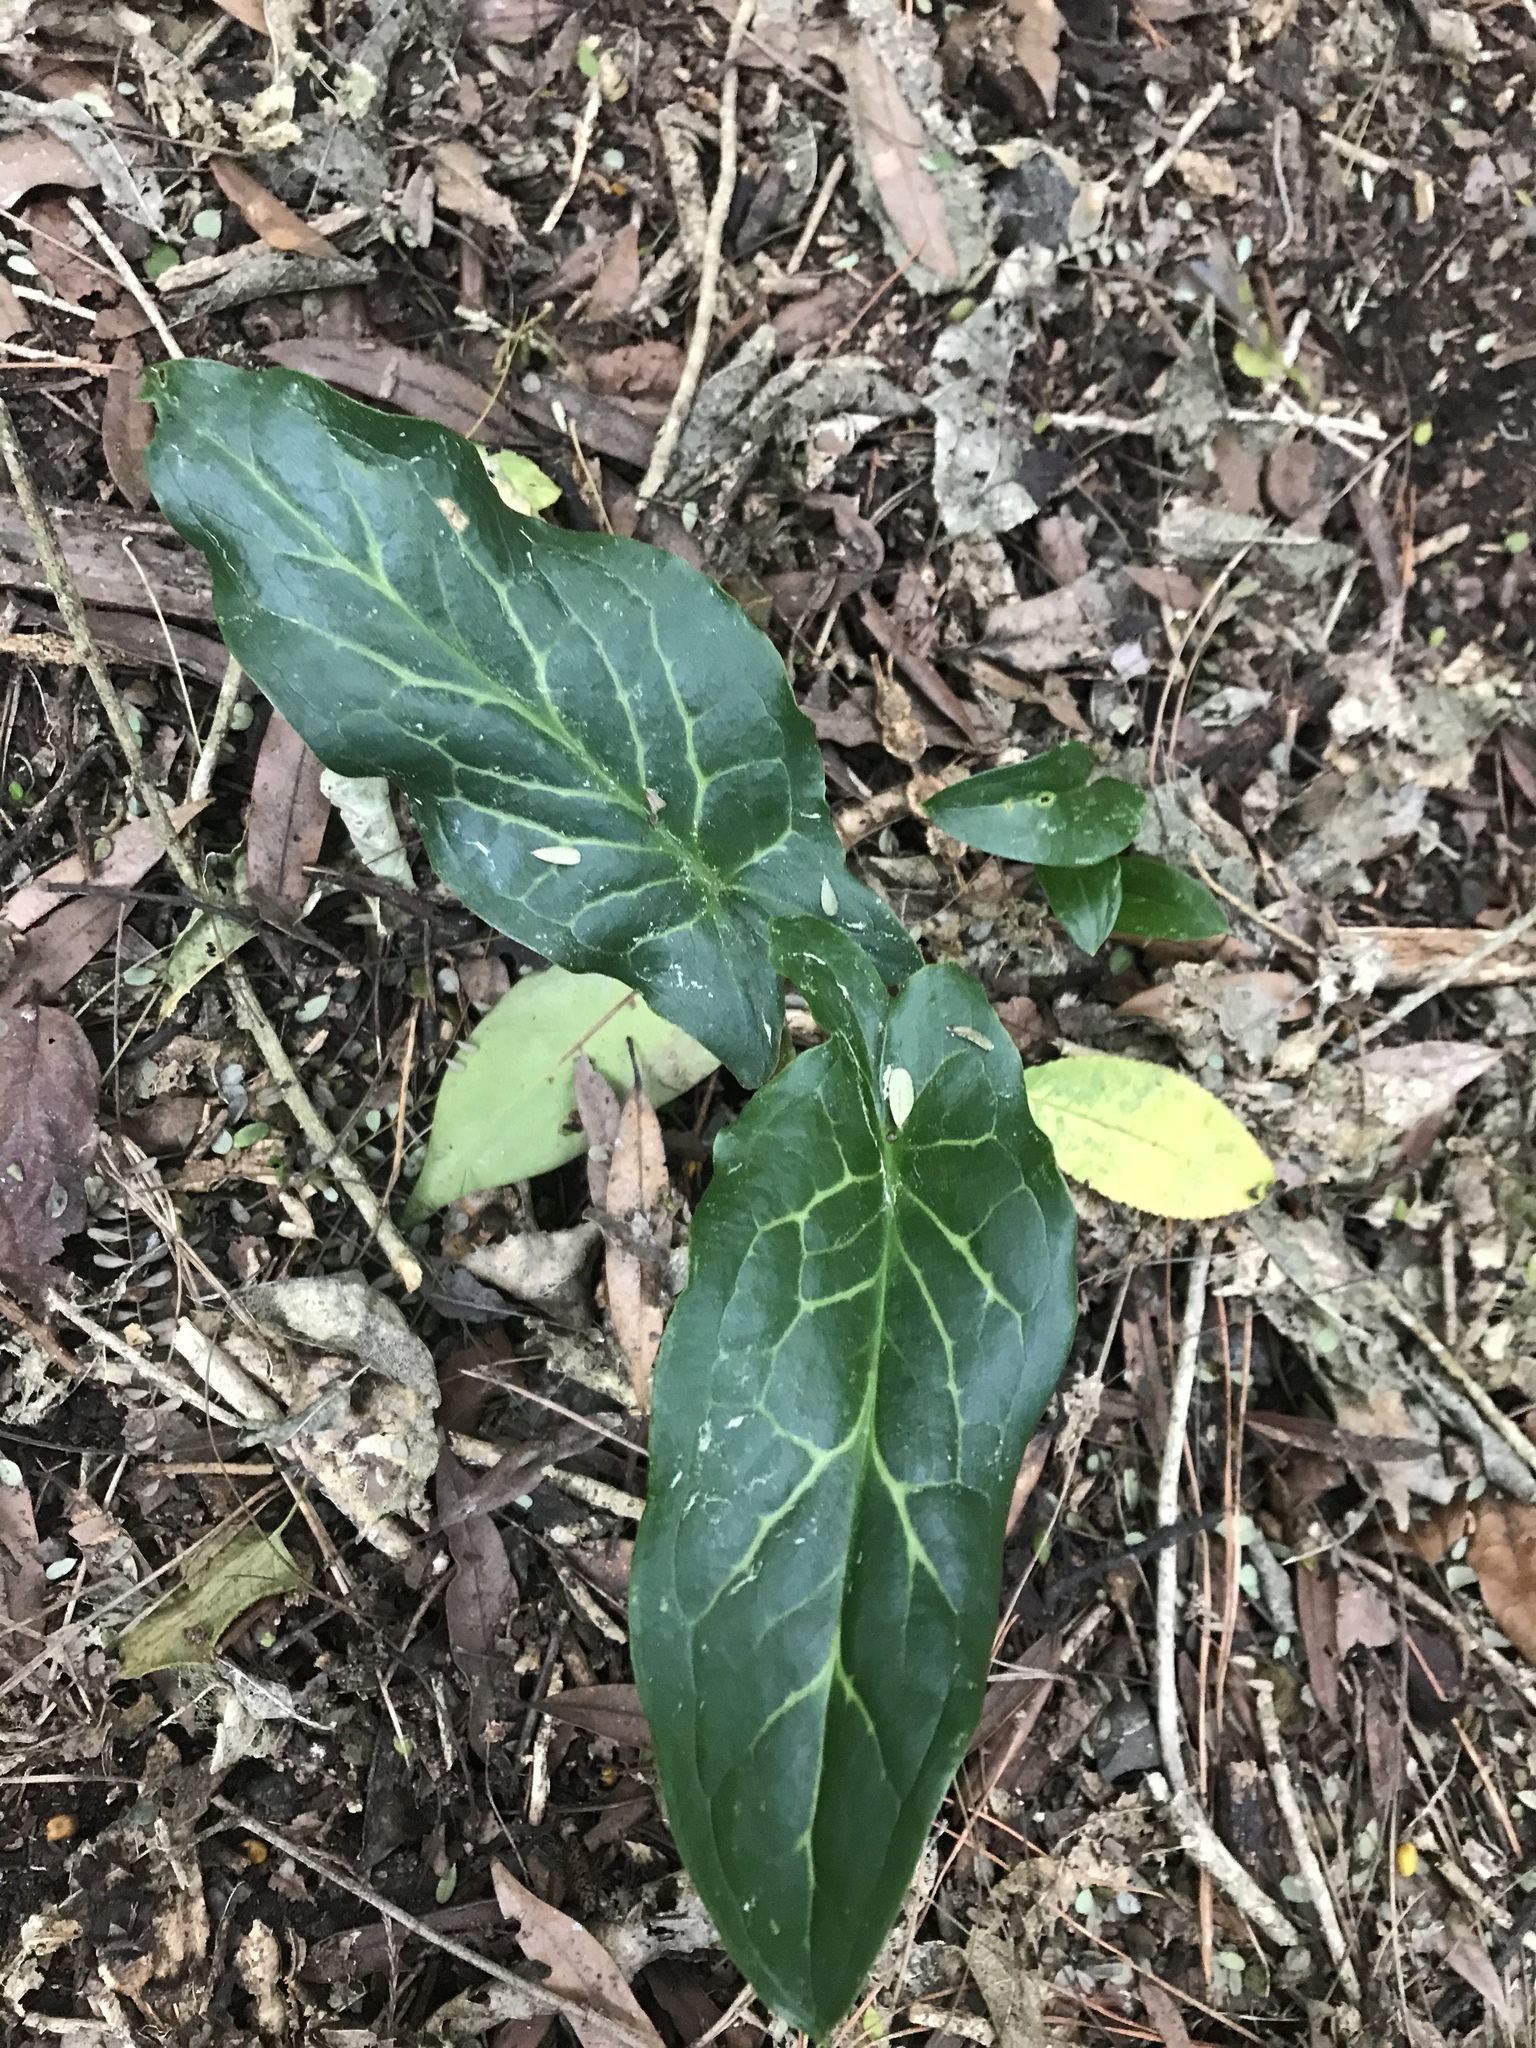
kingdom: Plantae
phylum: Tracheophyta
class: Liliopsida
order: Alismatales
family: Araceae
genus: Arum
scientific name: Arum italicum
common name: Italian lords-and-ladies
